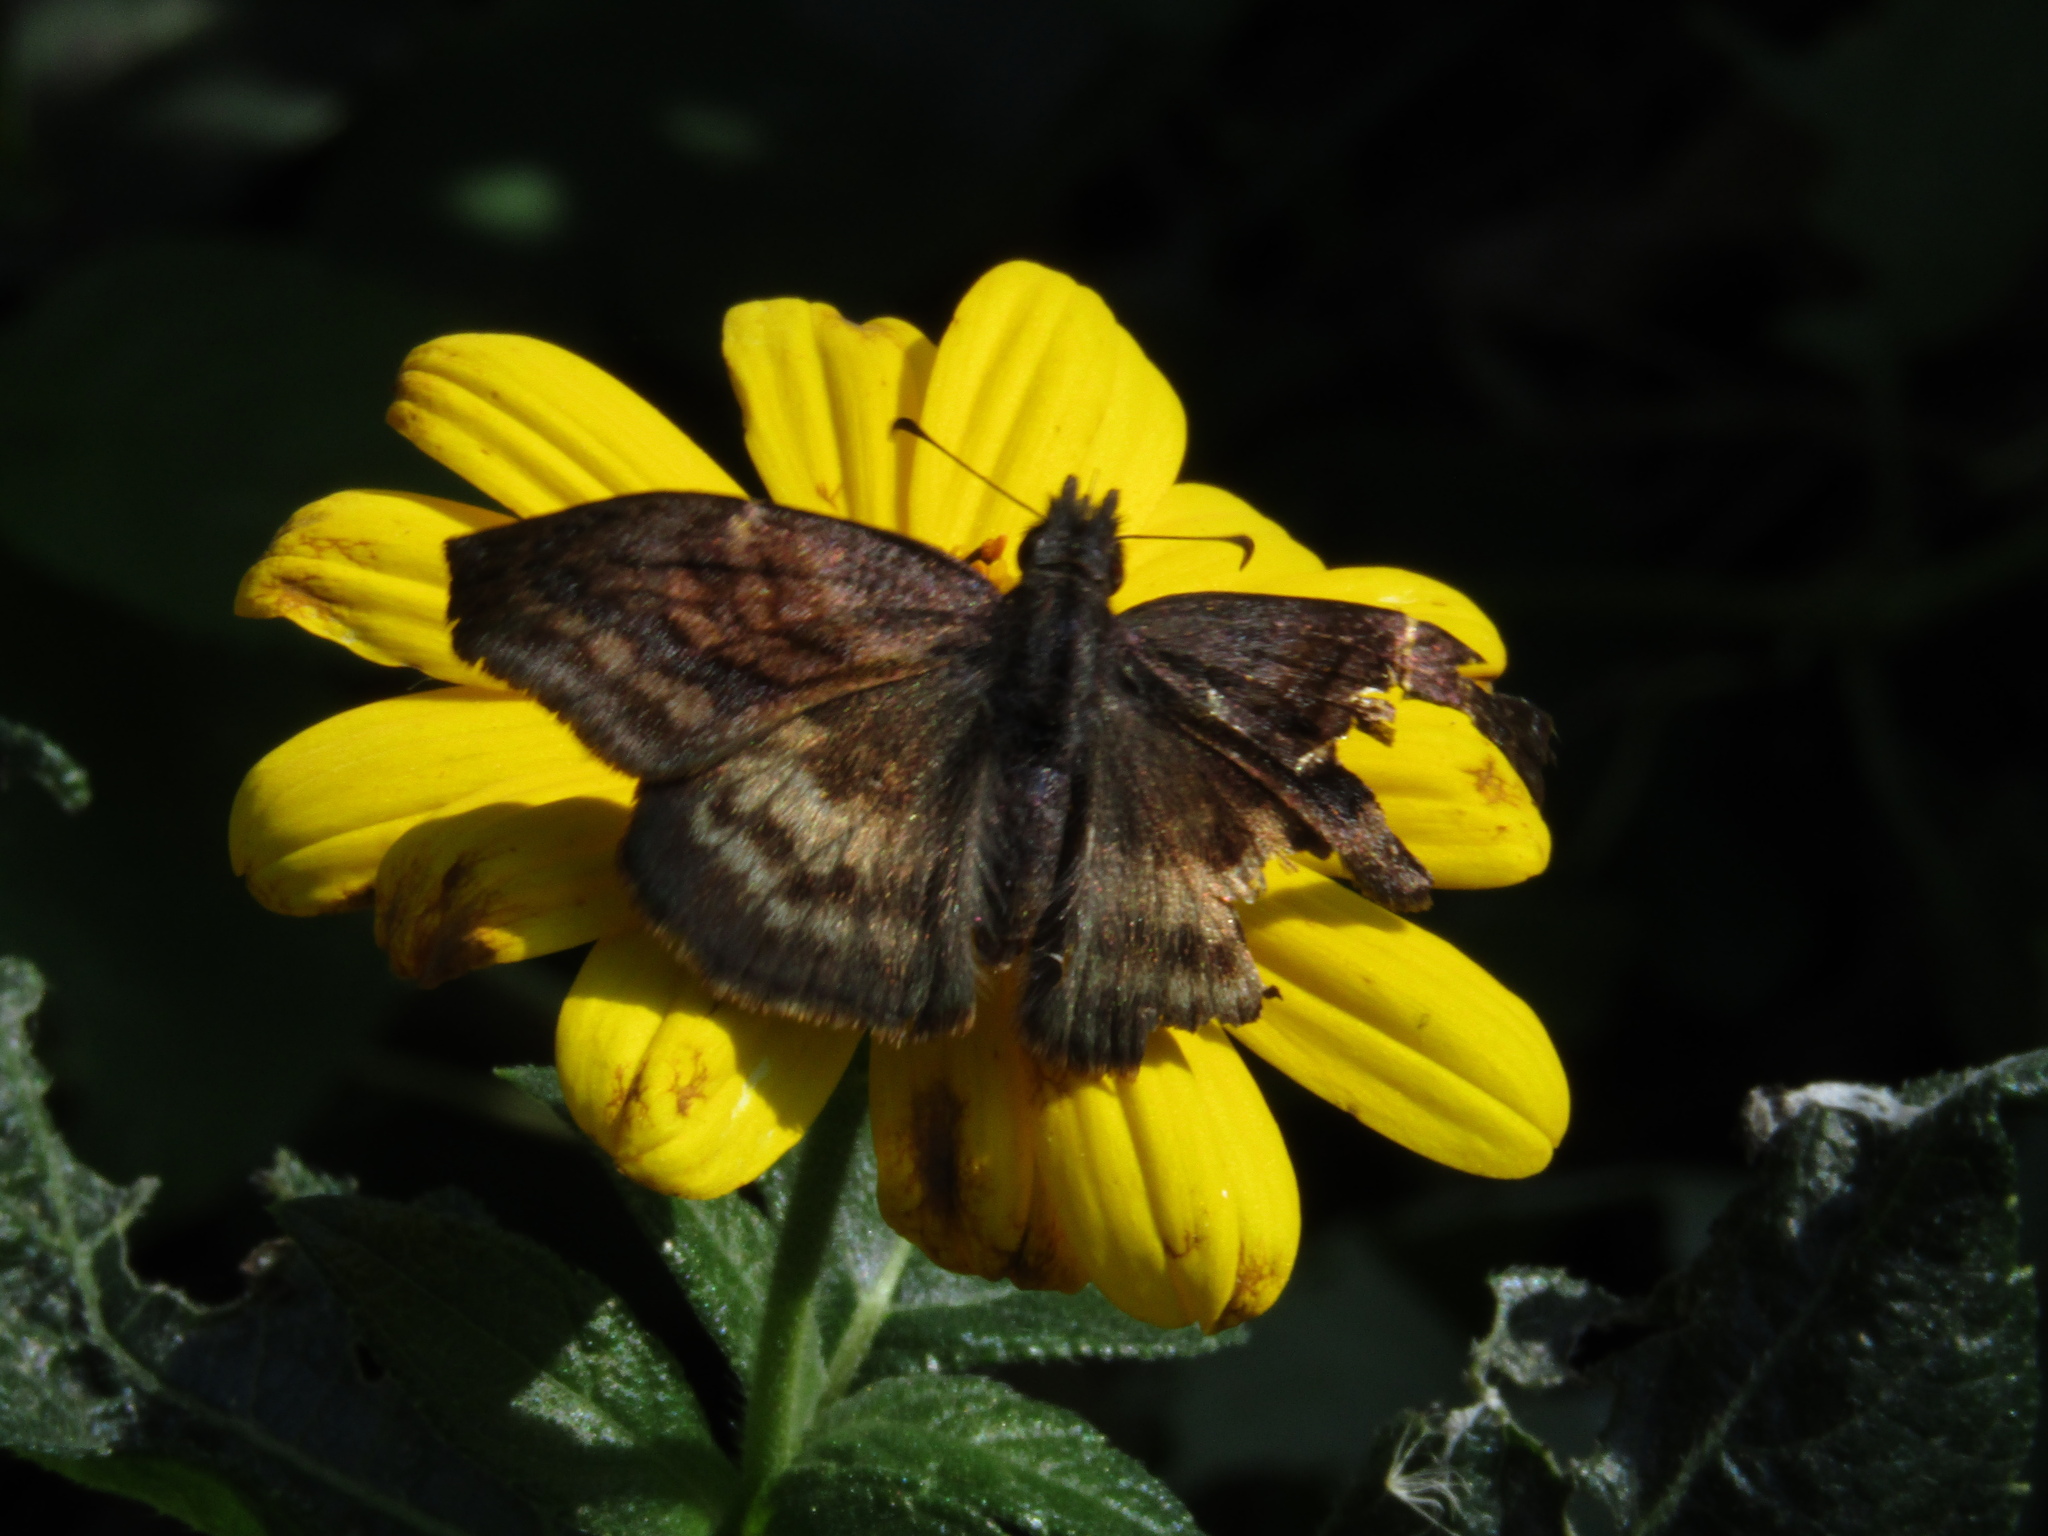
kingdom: Animalia
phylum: Arthropoda
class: Insecta
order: Lepidoptera
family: Hesperiidae
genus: Theagenes
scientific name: Theagenes dichrous
